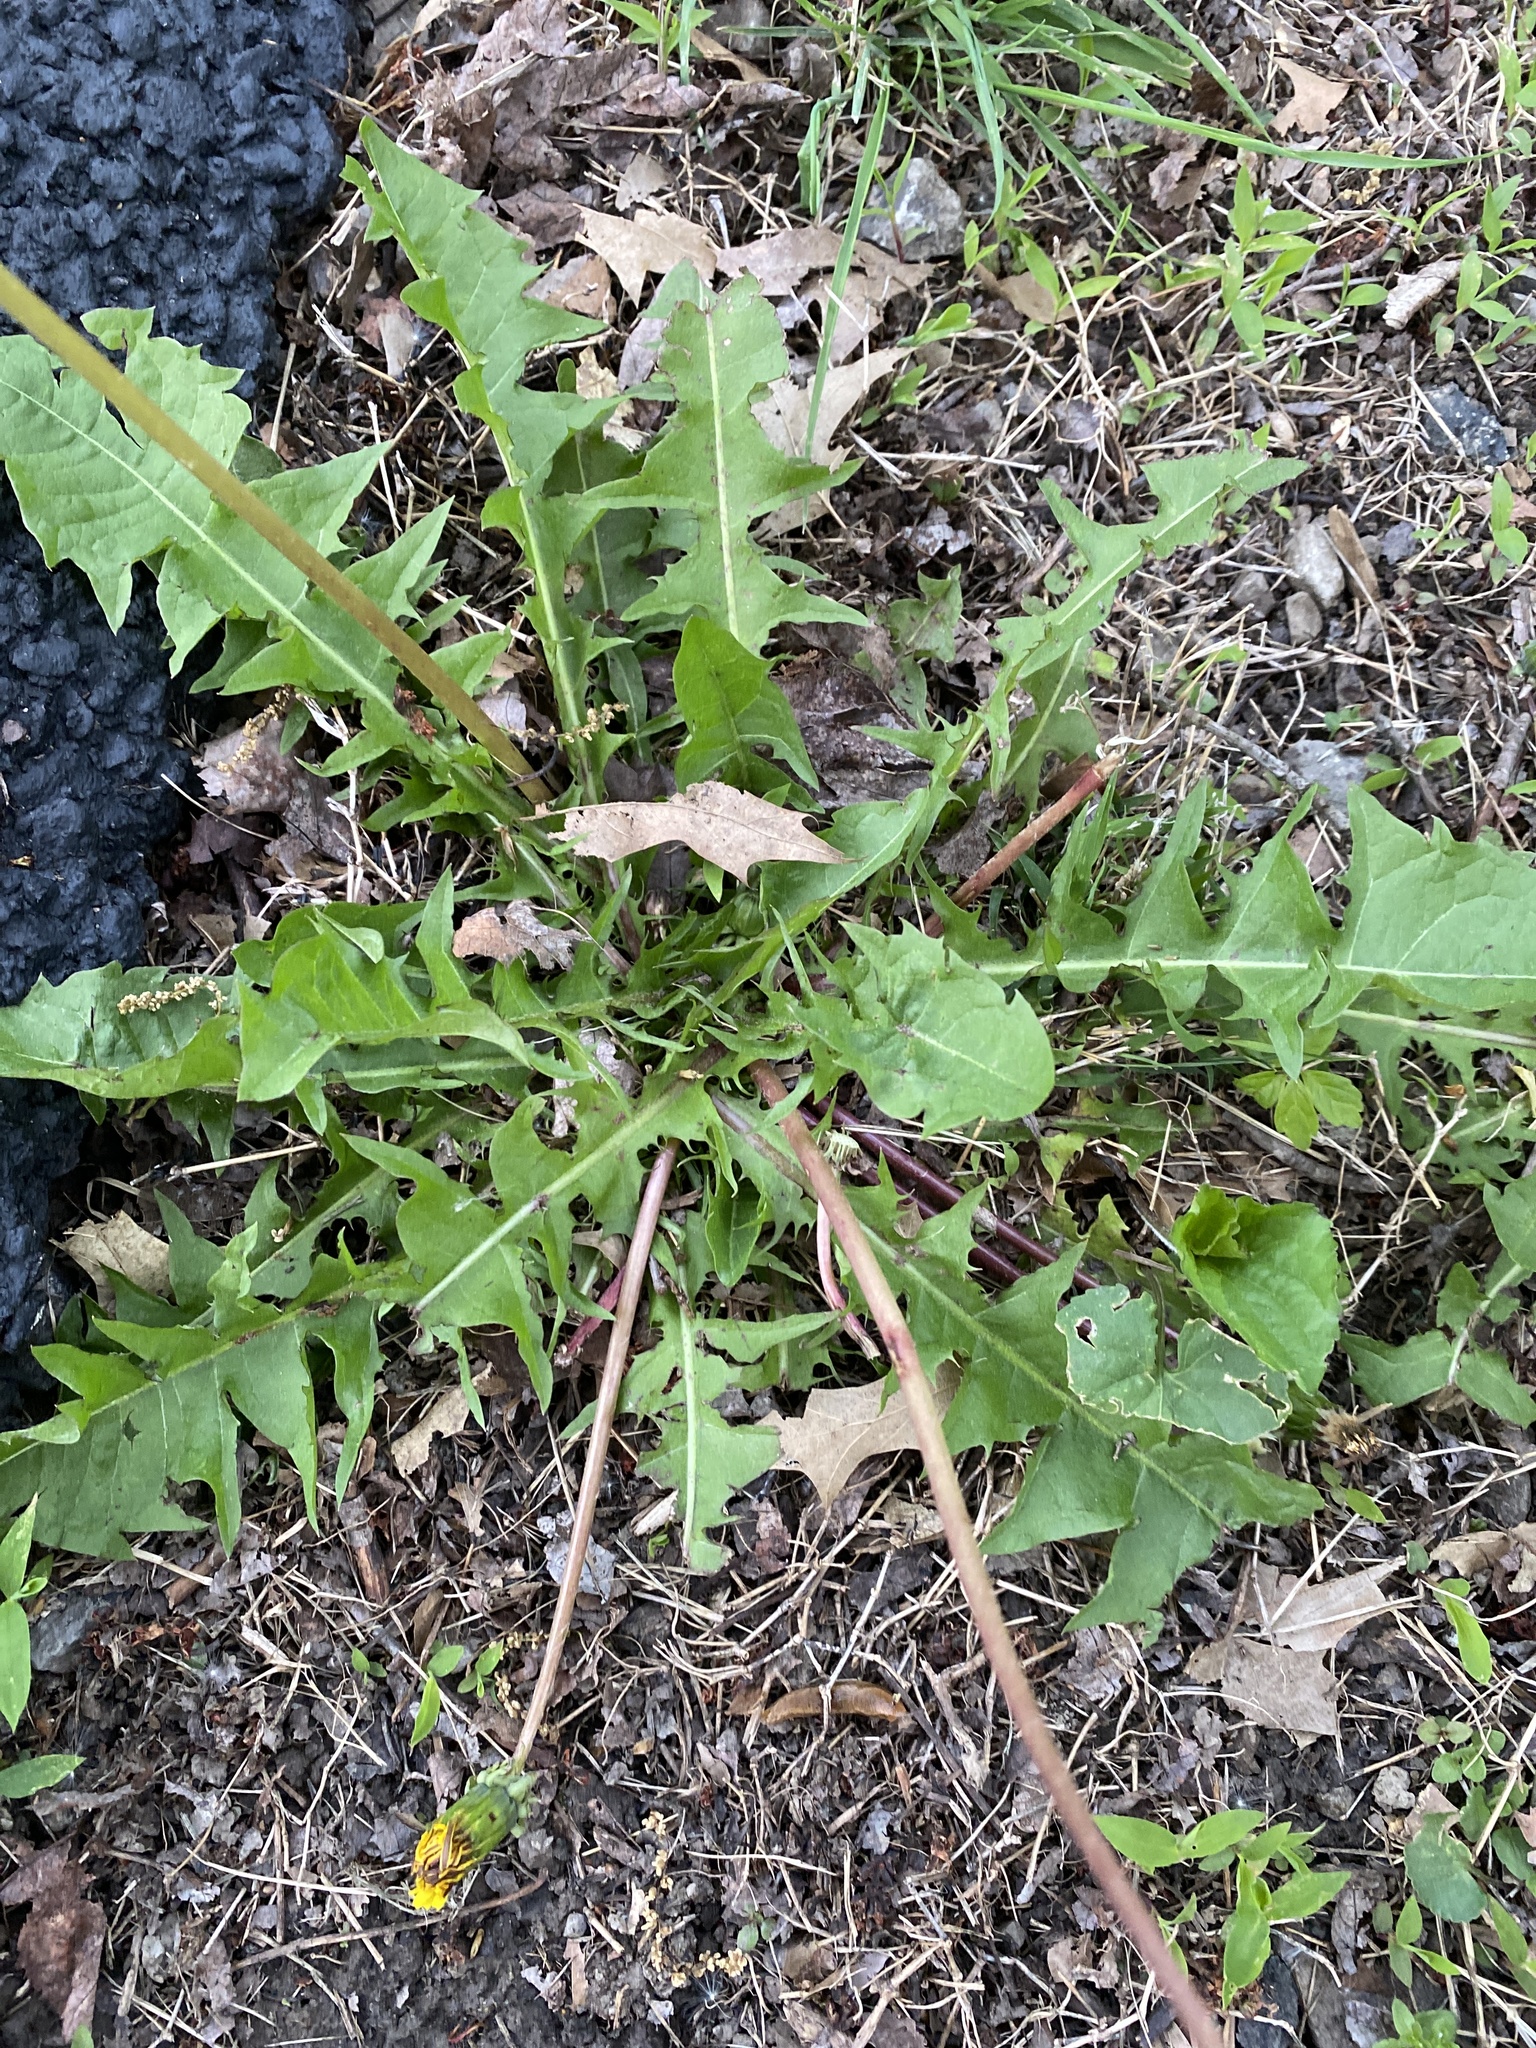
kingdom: Plantae
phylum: Tracheophyta
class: Magnoliopsida
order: Asterales
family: Asteraceae
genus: Taraxacum
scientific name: Taraxacum erythrospermum
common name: Rock dandelion
